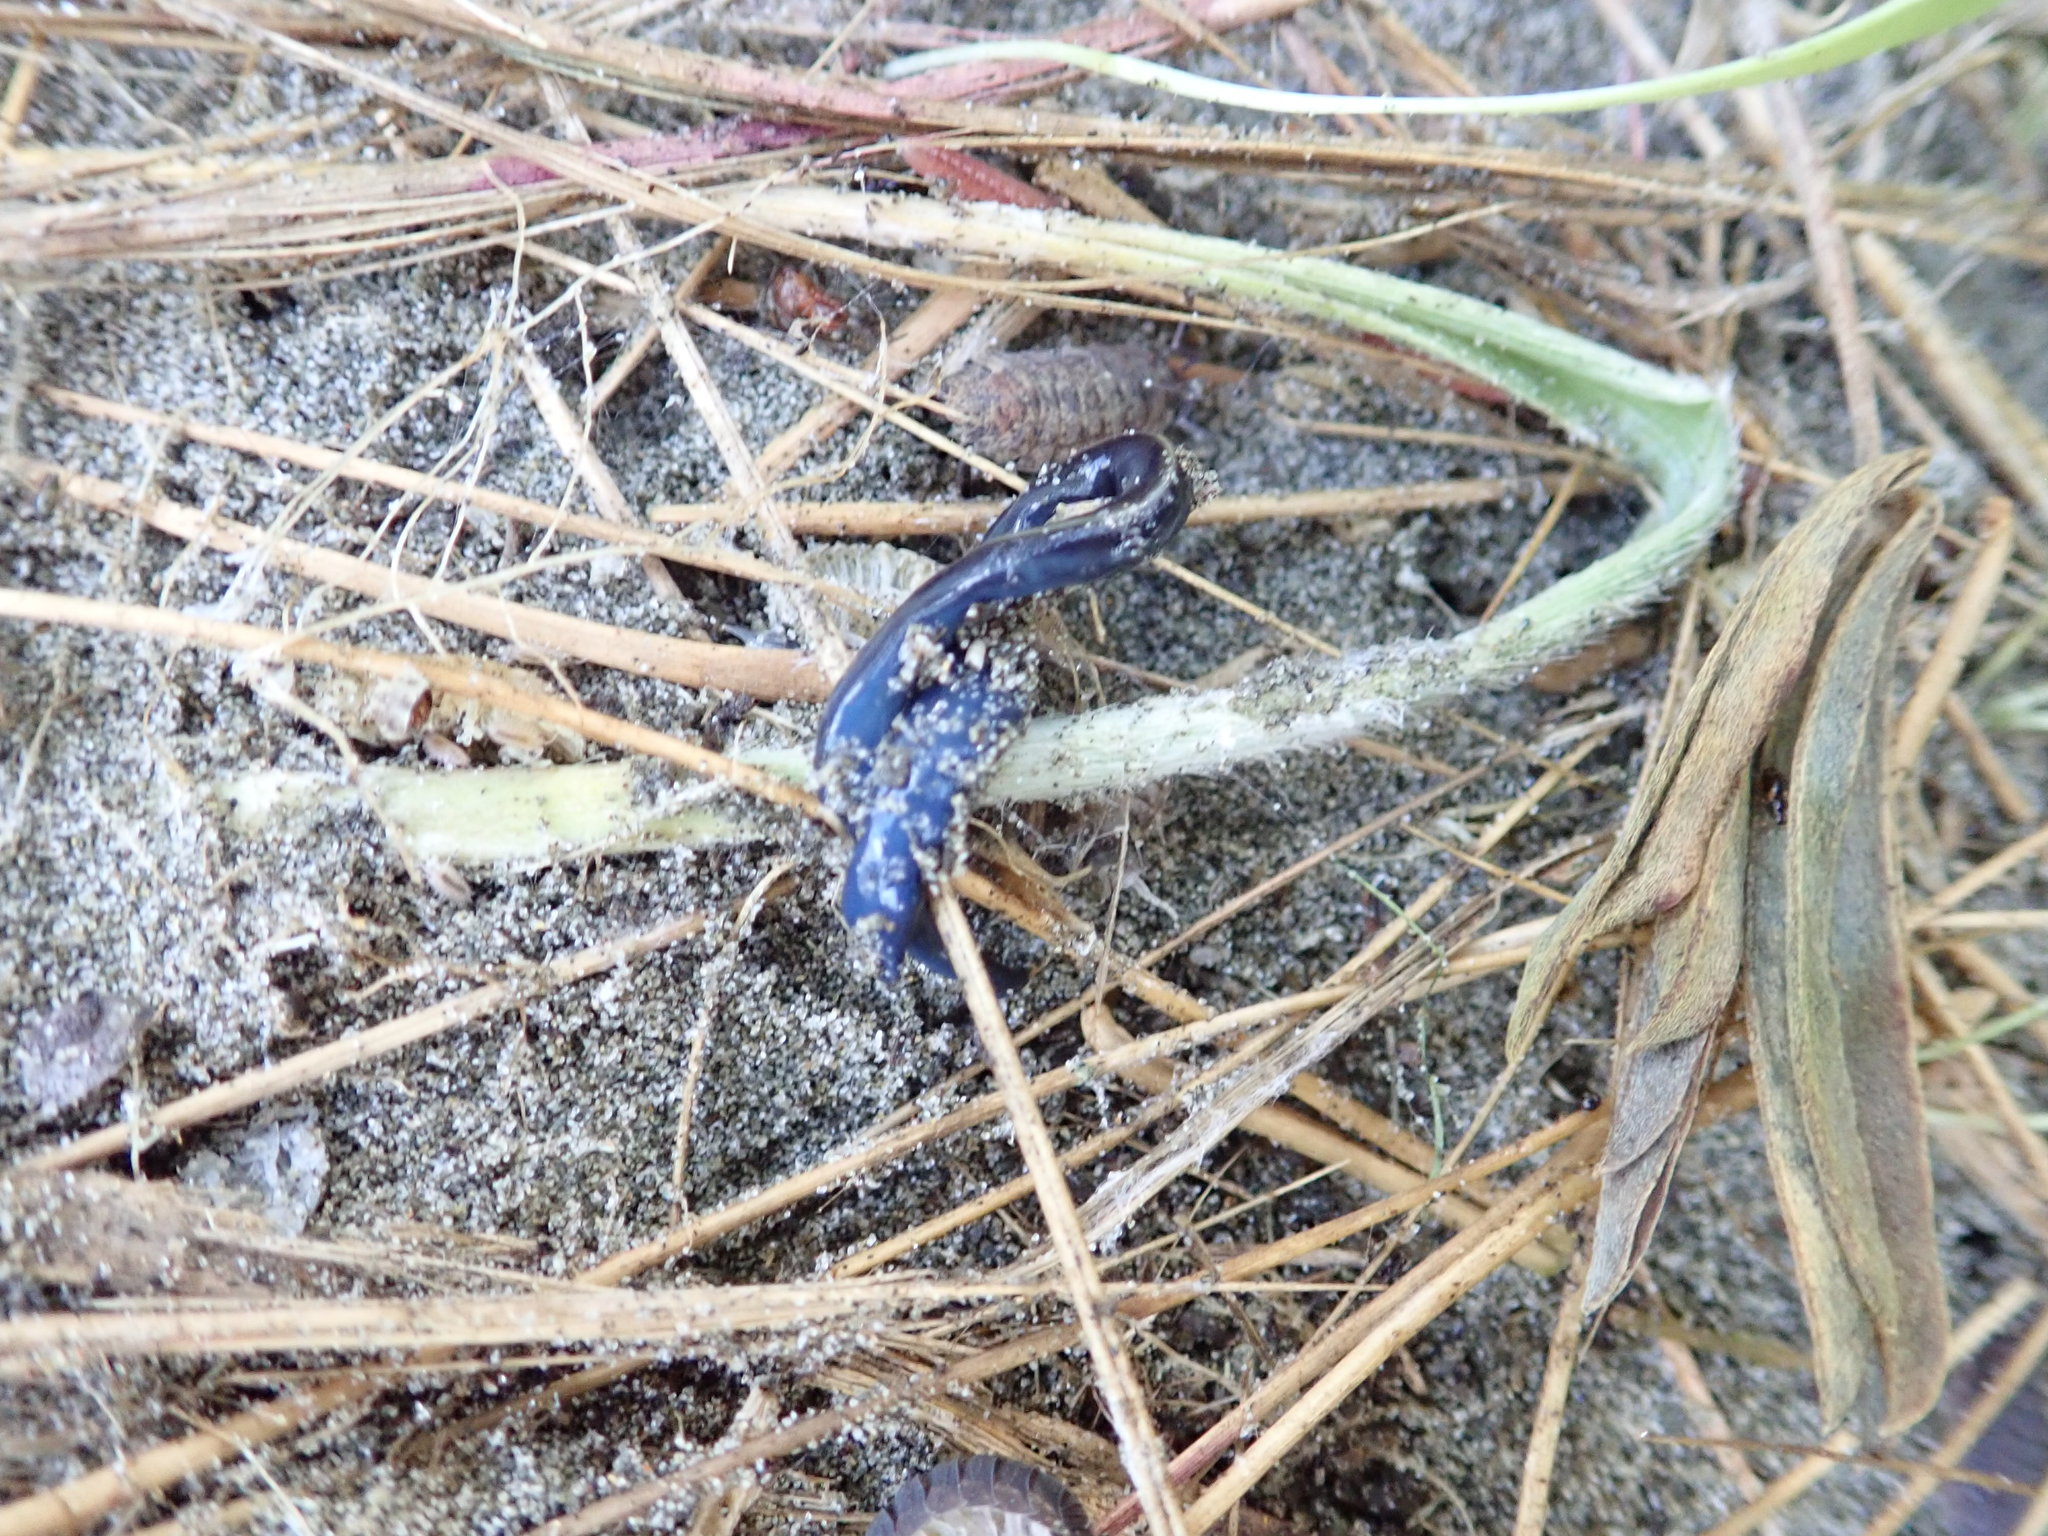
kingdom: Animalia
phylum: Platyhelminthes
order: Tricladida
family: Geoplanidae
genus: Caenoplana
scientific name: Caenoplana coerulea
